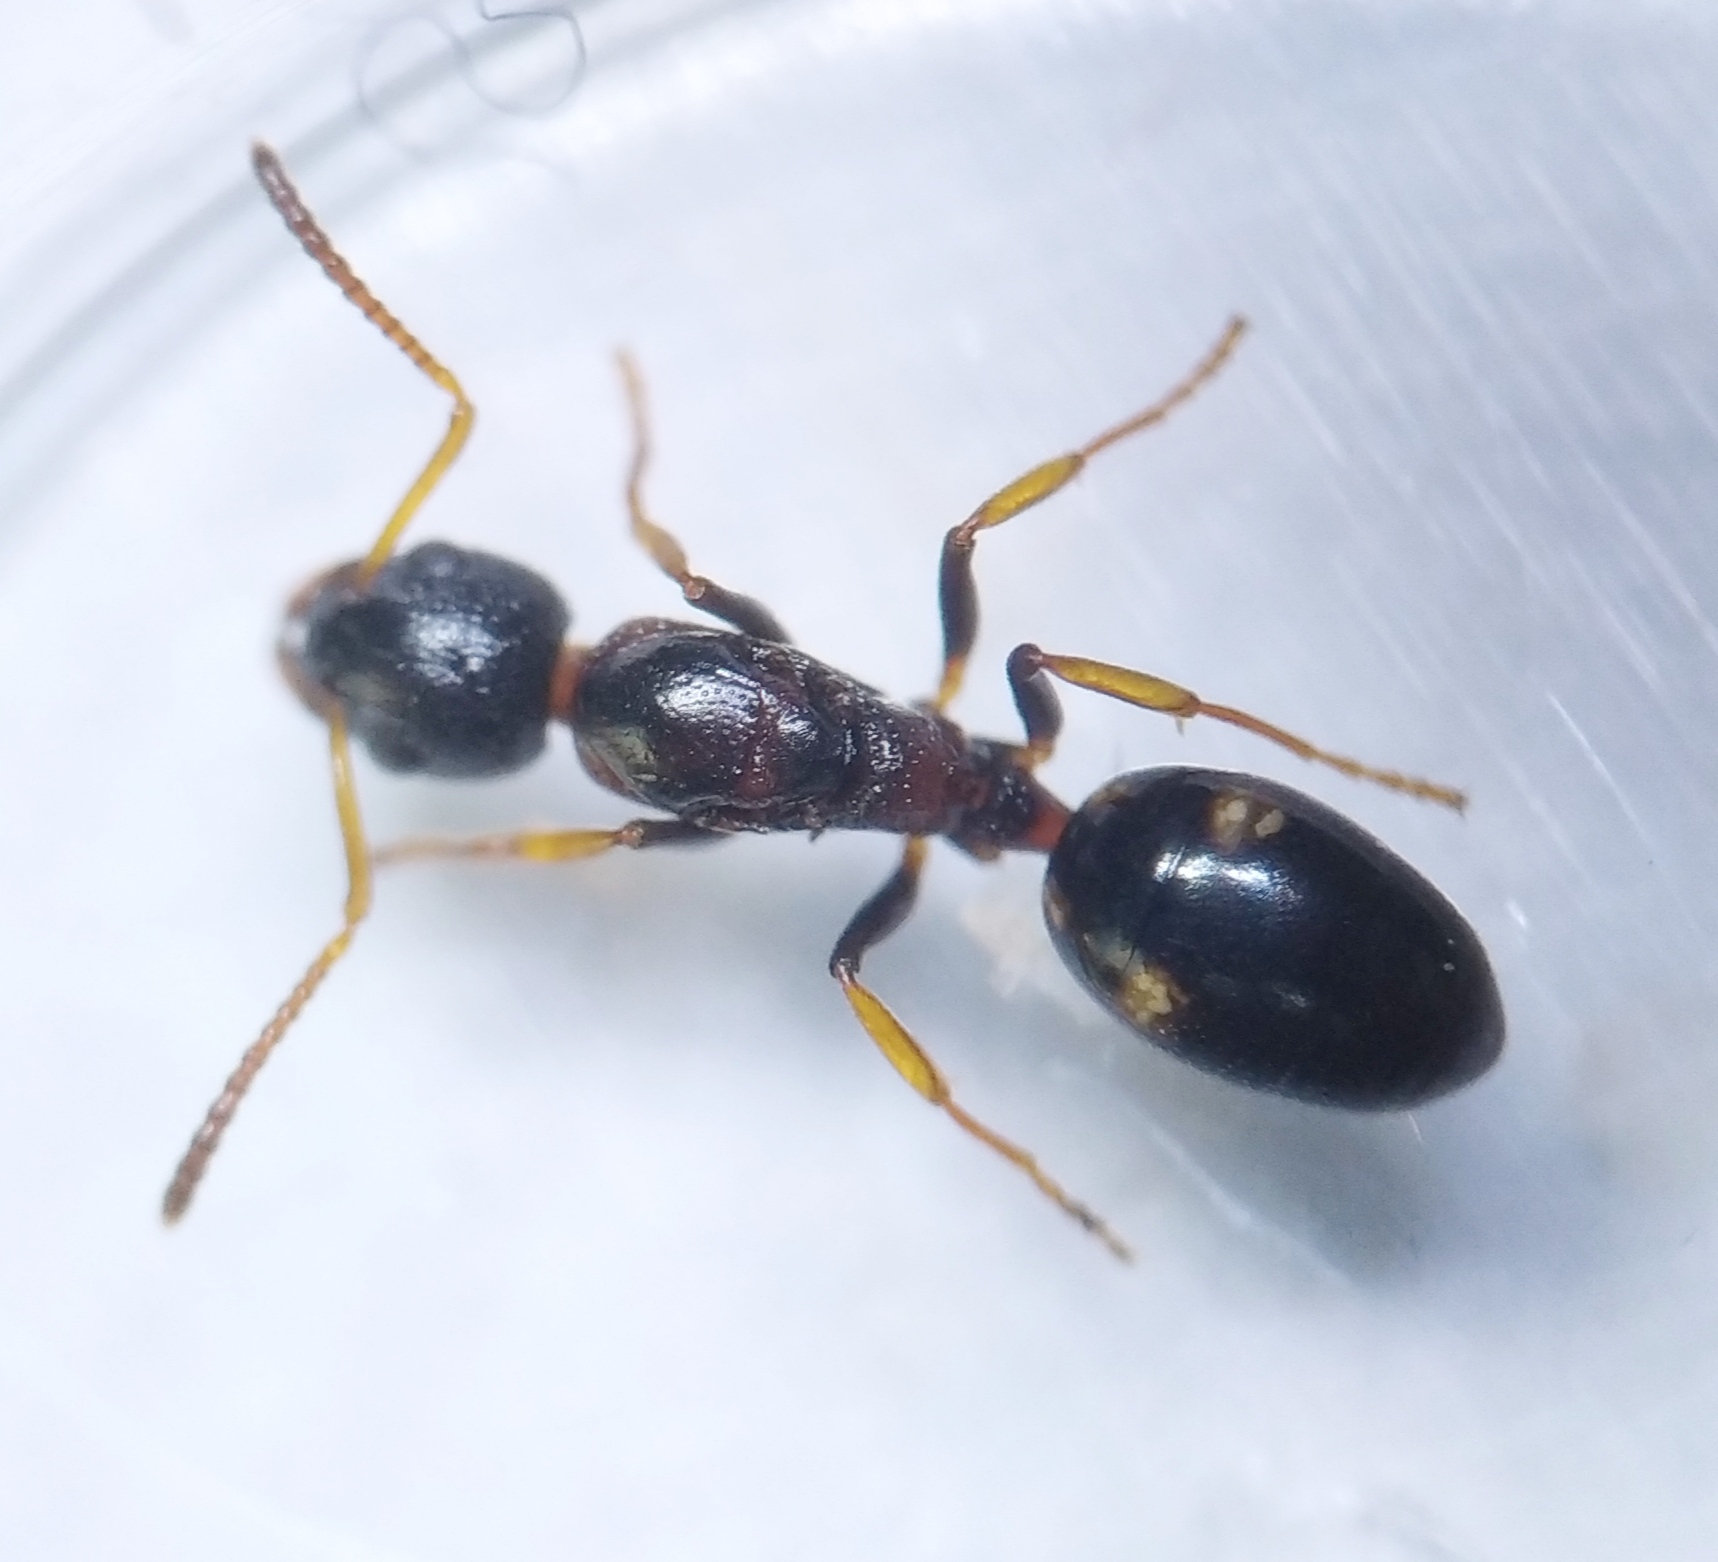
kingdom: Animalia
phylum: Arthropoda
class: Insecta
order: Hymenoptera
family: Formicidae
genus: Dolichoderus
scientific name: Dolichoderus quadripunctatus
